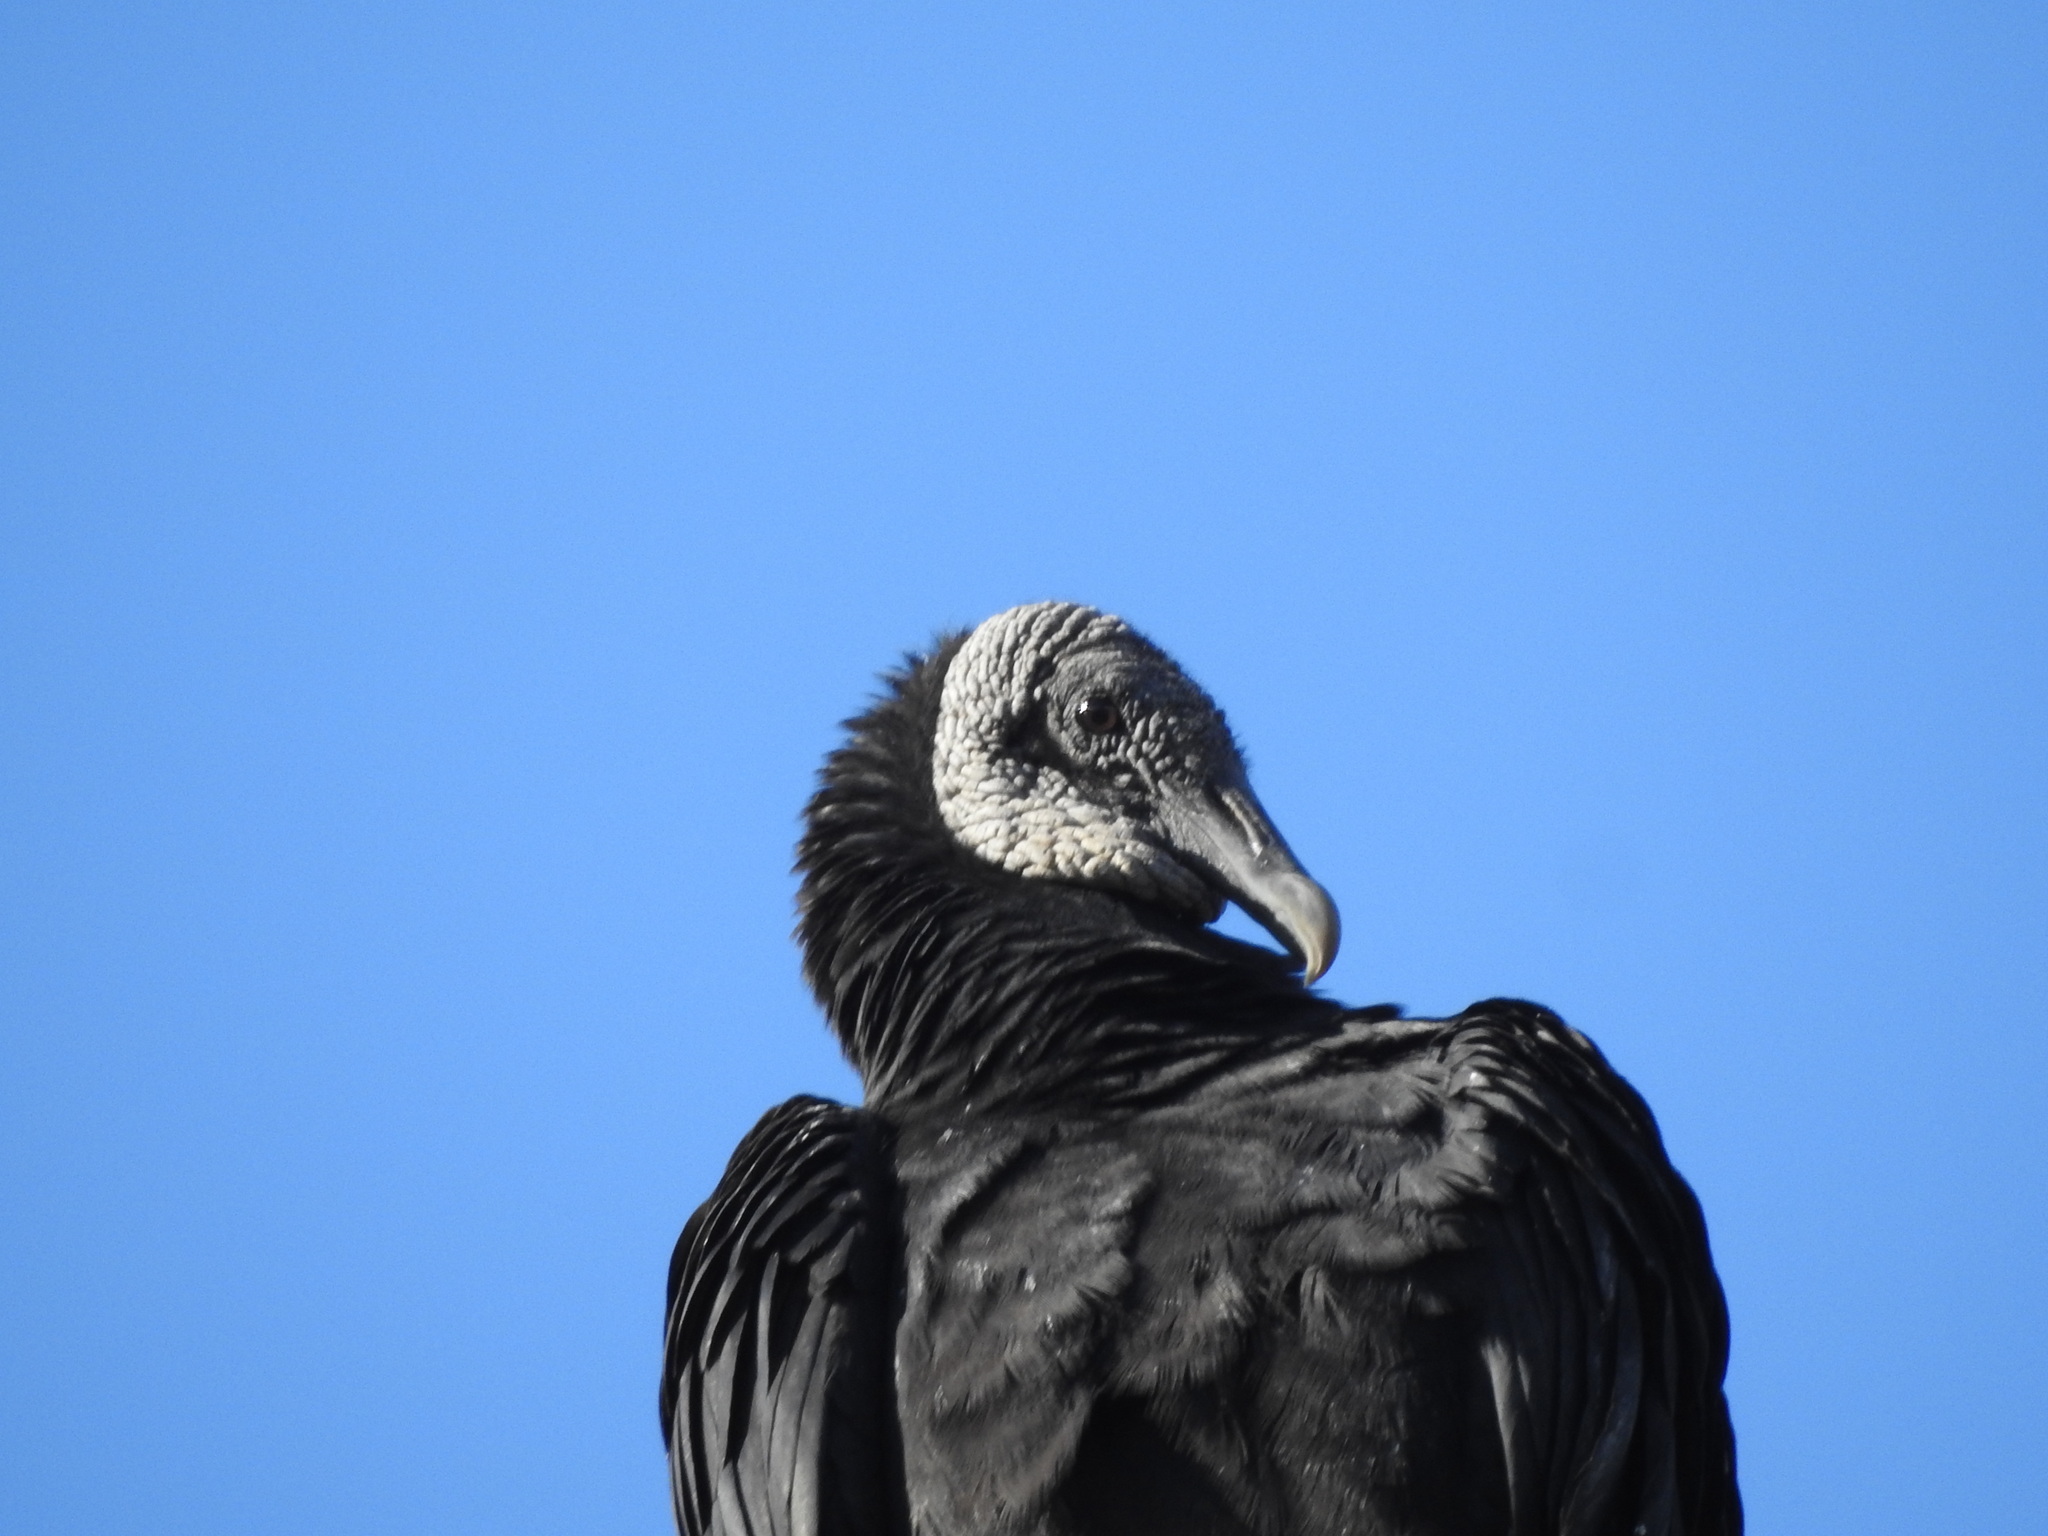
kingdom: Animalia
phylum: Chordata
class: Aves
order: Accipitriformes
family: Cathartidae
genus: Coragyps
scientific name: Coragyps atratus
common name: Black vulture
